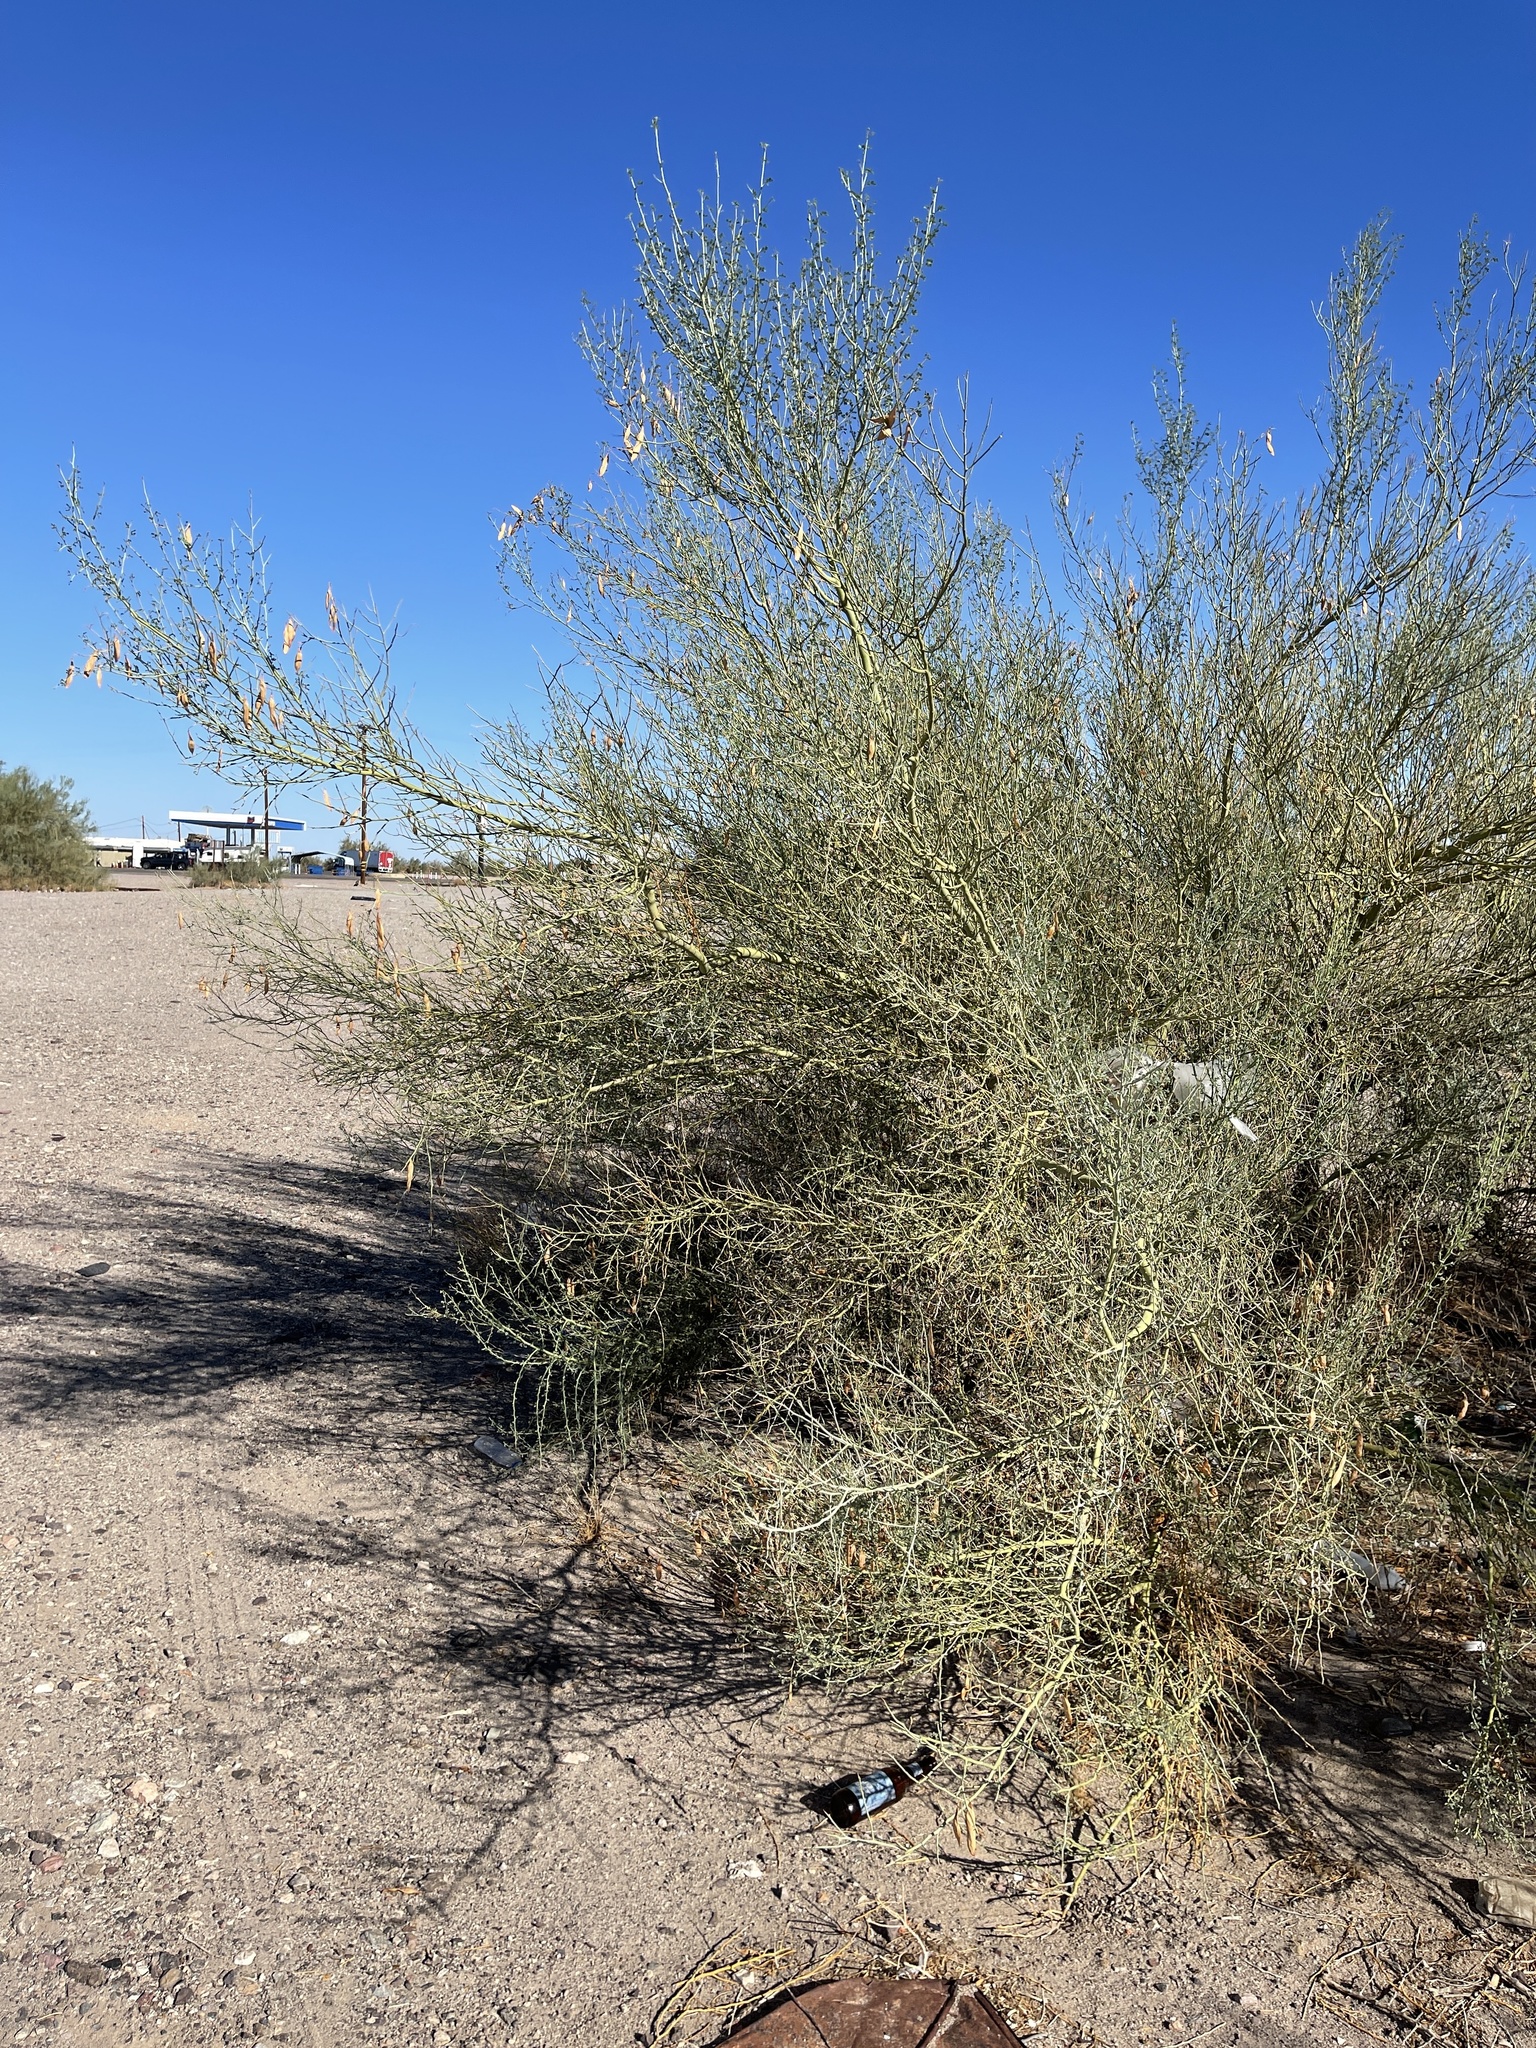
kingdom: Plantae
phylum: Tracheophyta
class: Magnoliopsida
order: Fabales
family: Fabaceae
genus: Parkinsonia
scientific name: Parkinsonia florida
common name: Blue paloverde
